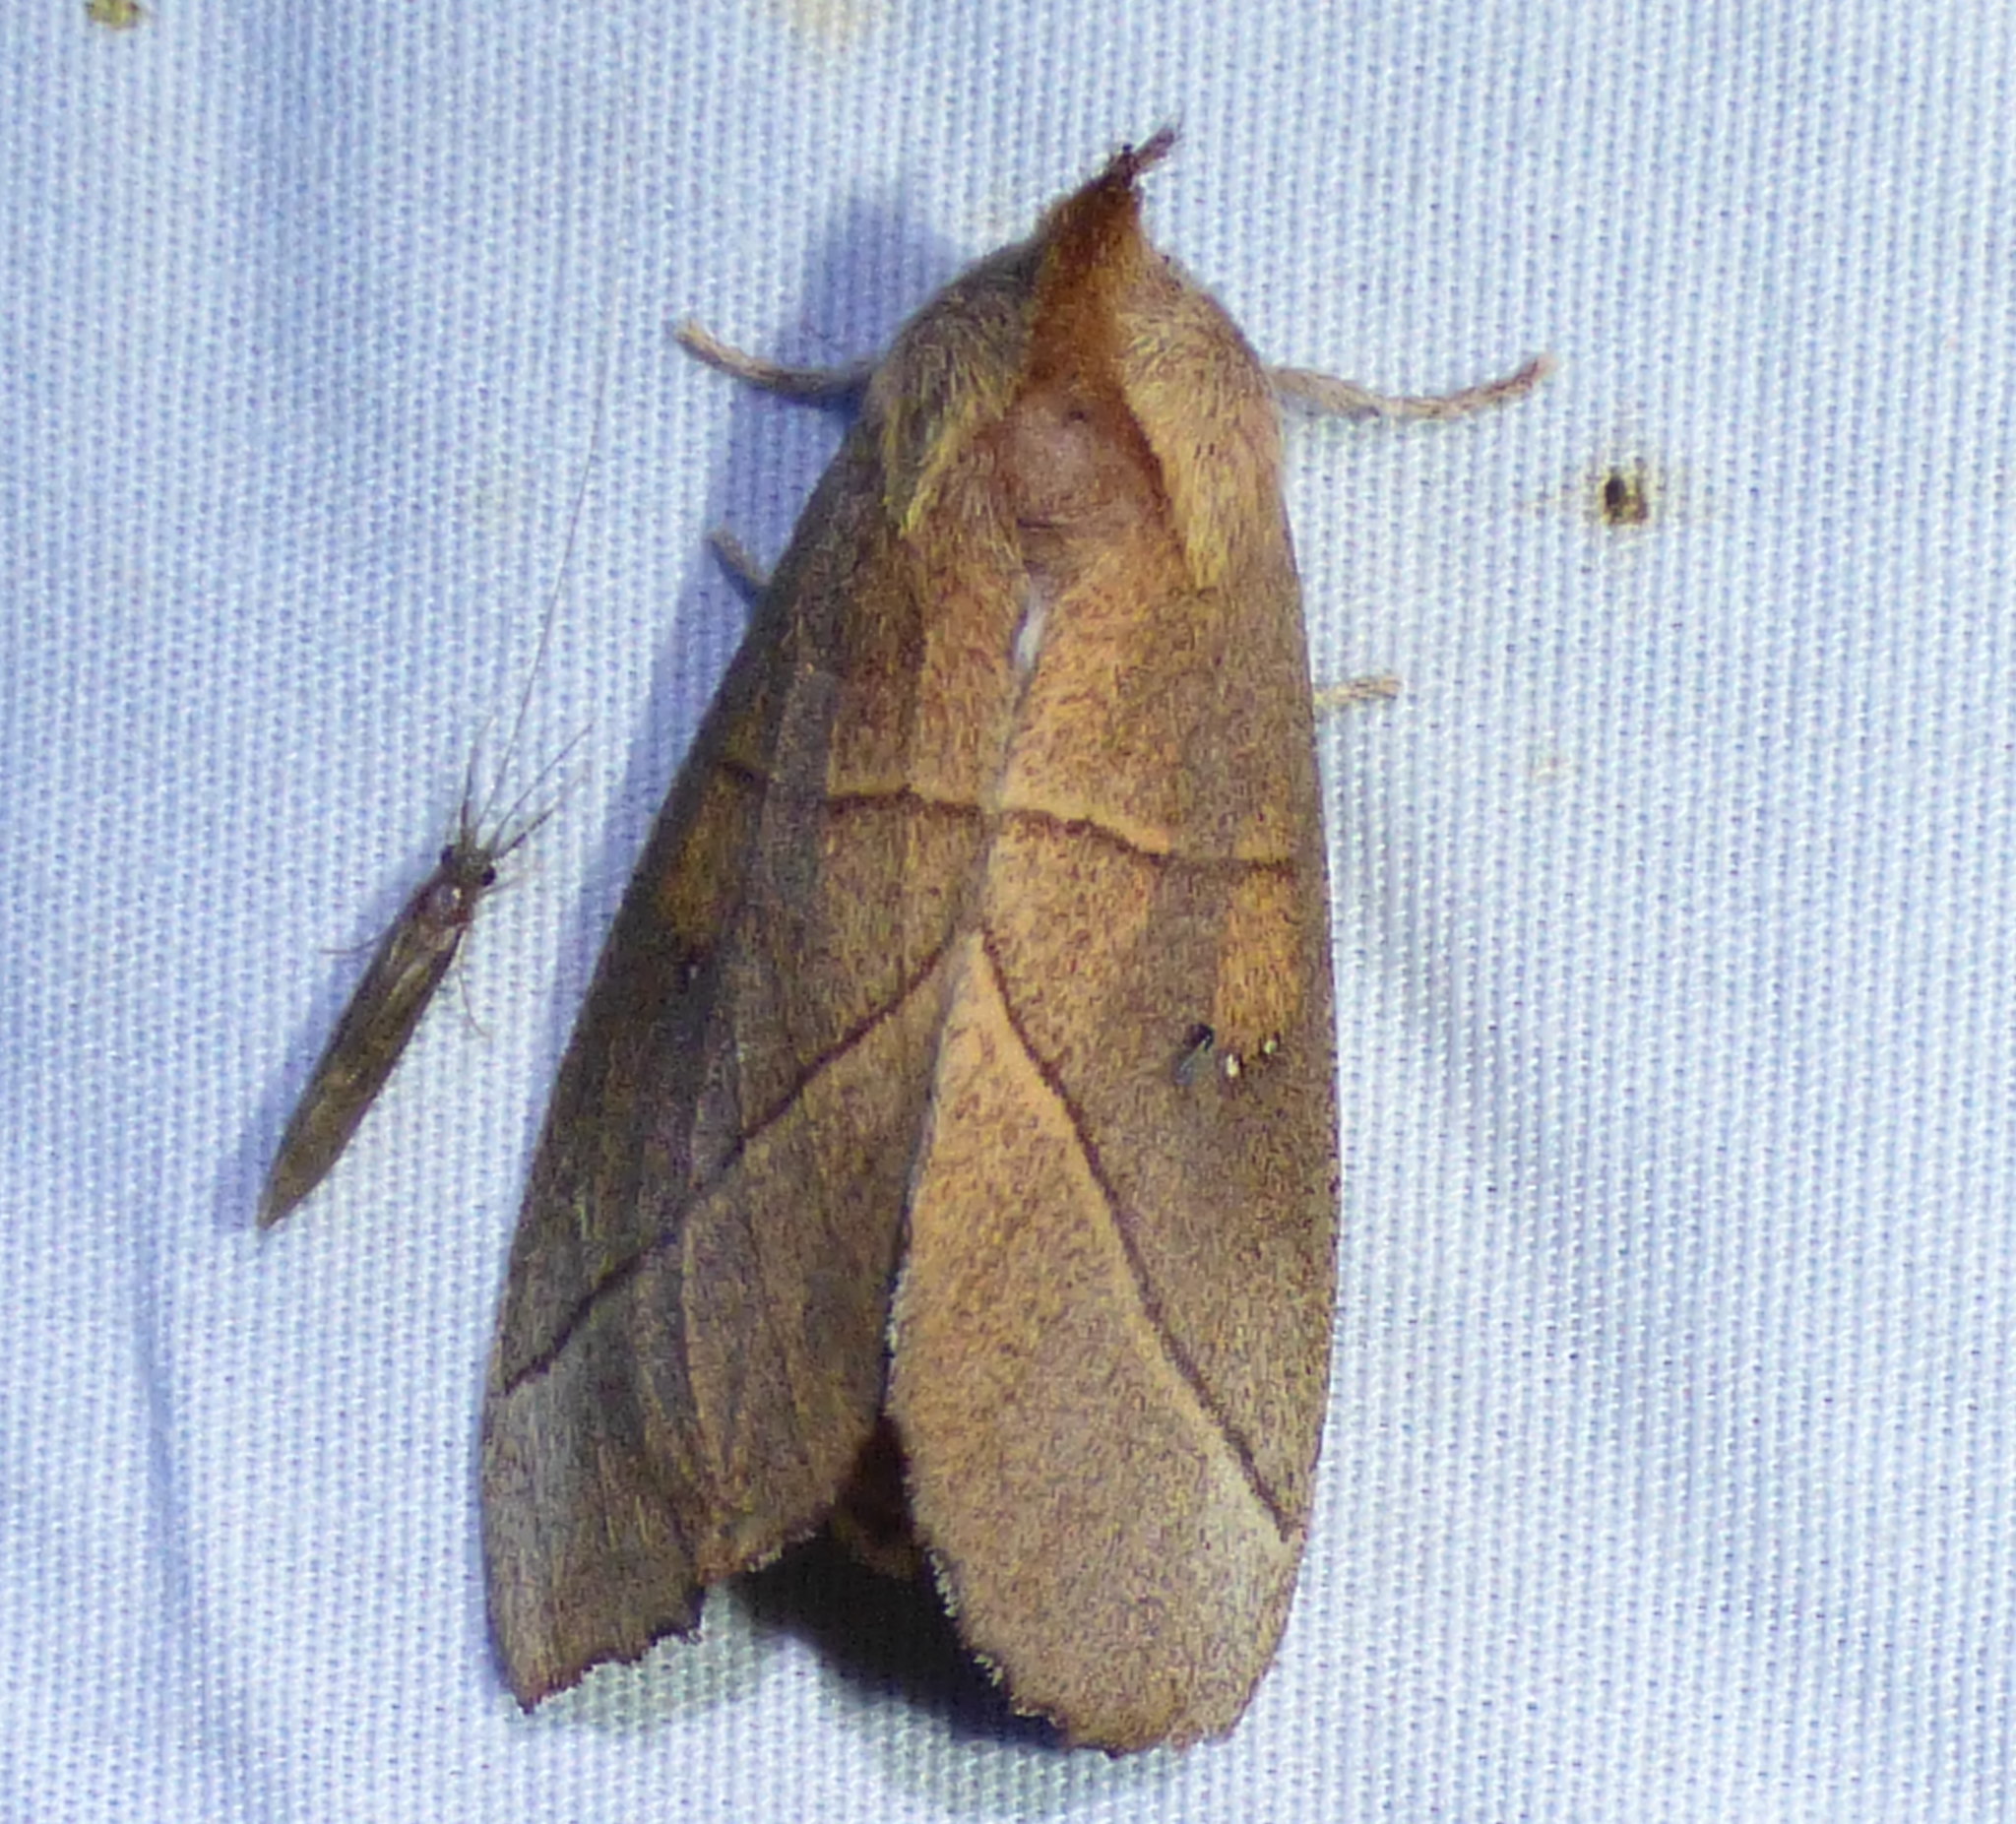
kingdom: Animalia
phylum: Arthropoda
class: Insecta
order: Lepidoptera
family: Notodontidae
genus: Nadata
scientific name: Nadata gibbosa
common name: White-dotted prominent
